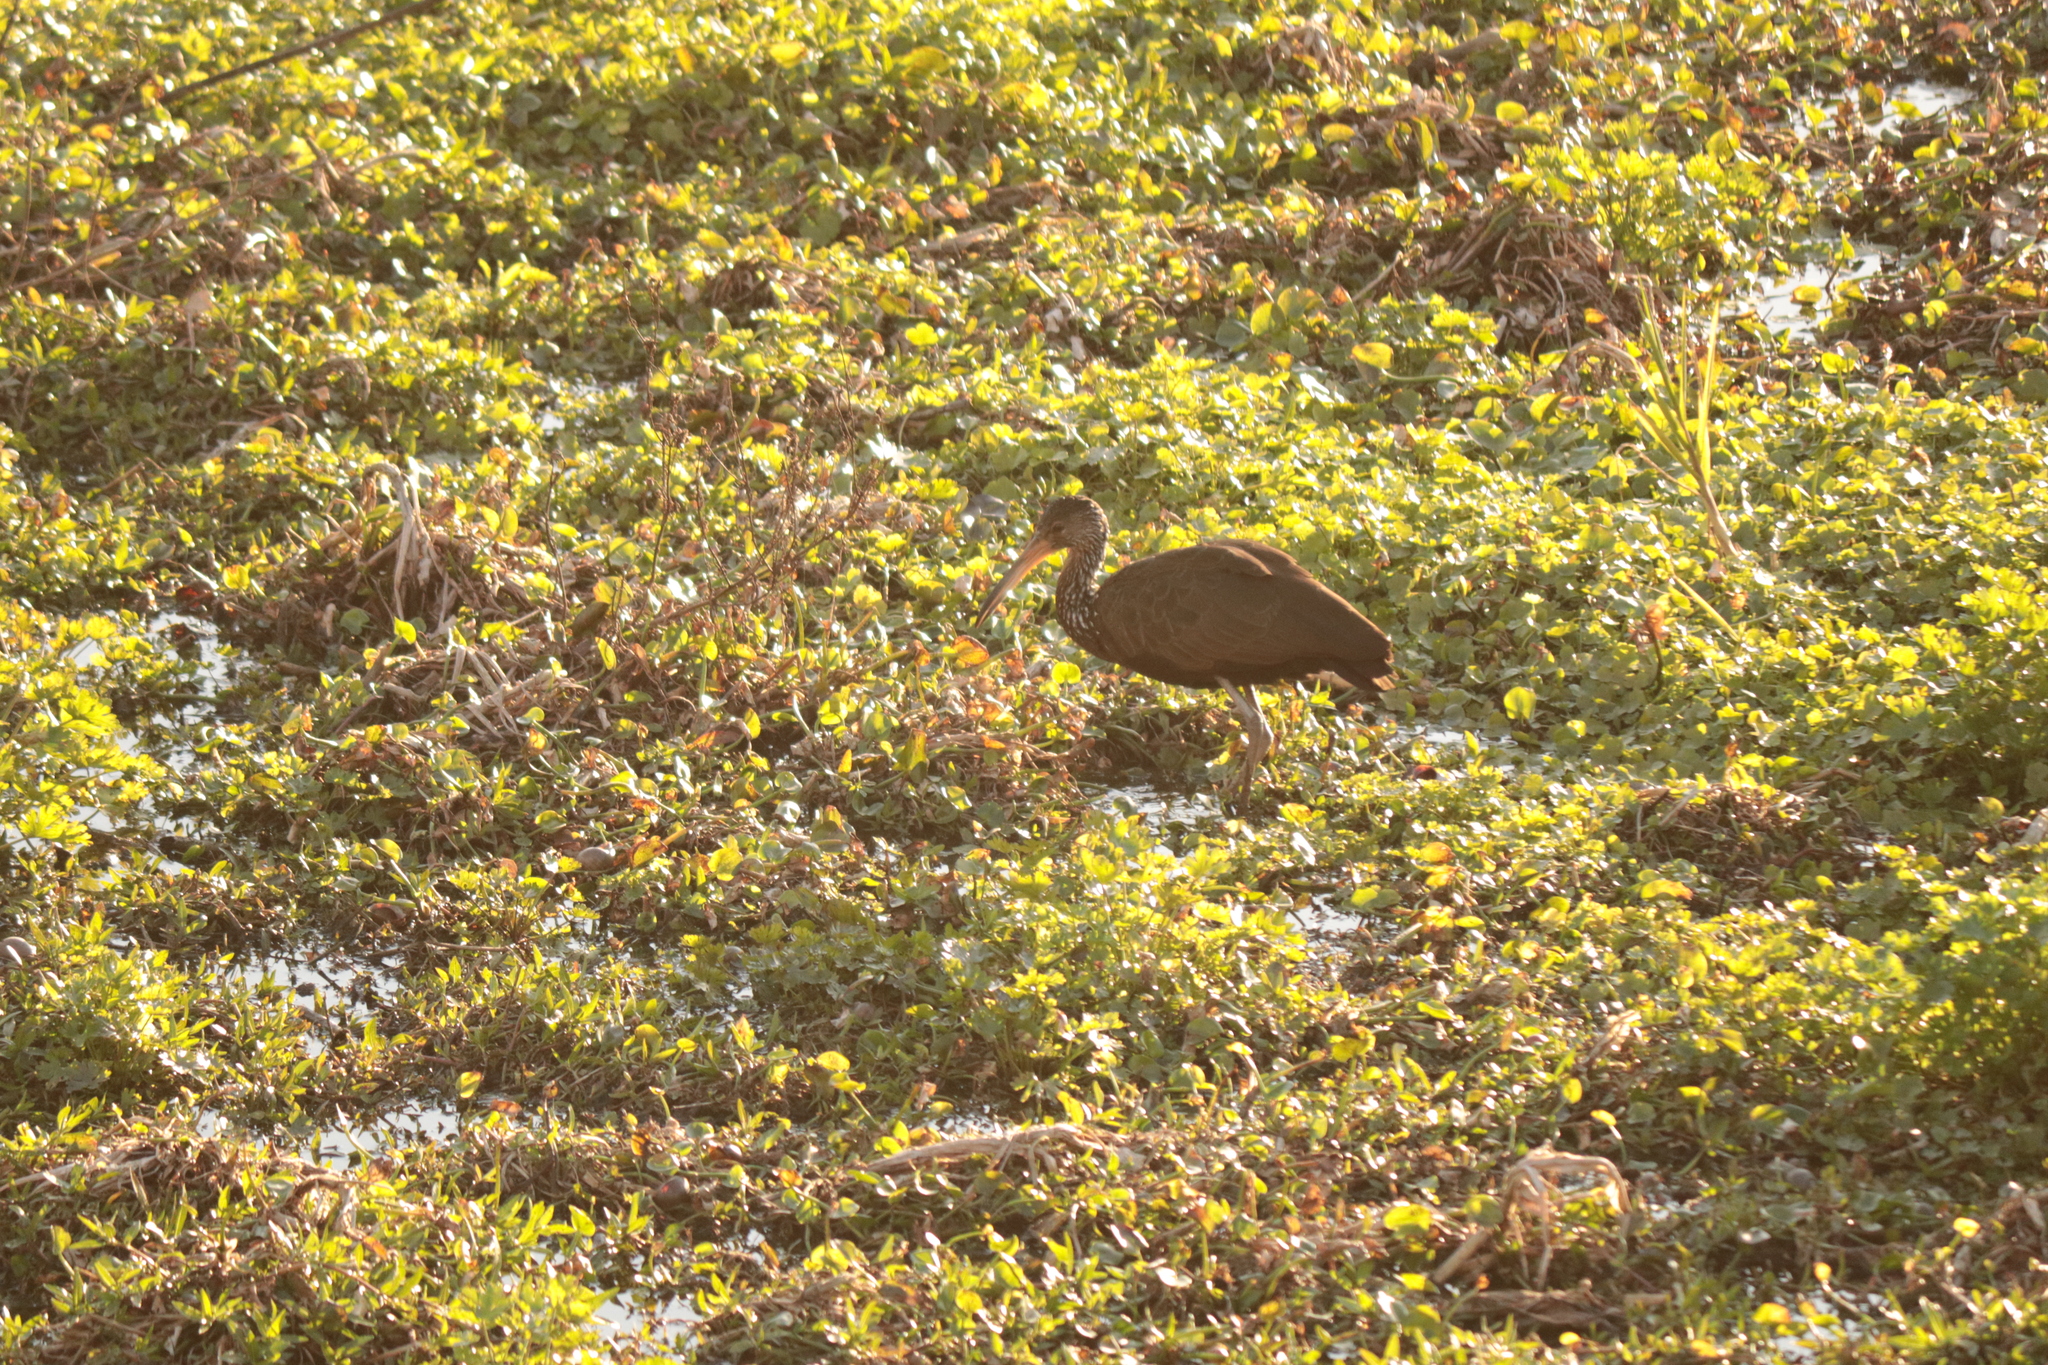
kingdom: Animalia
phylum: Chordata
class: Aves
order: Gruiformes
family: Aramidae
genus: Aramus
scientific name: Aramus guarauna
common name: Limpkin
